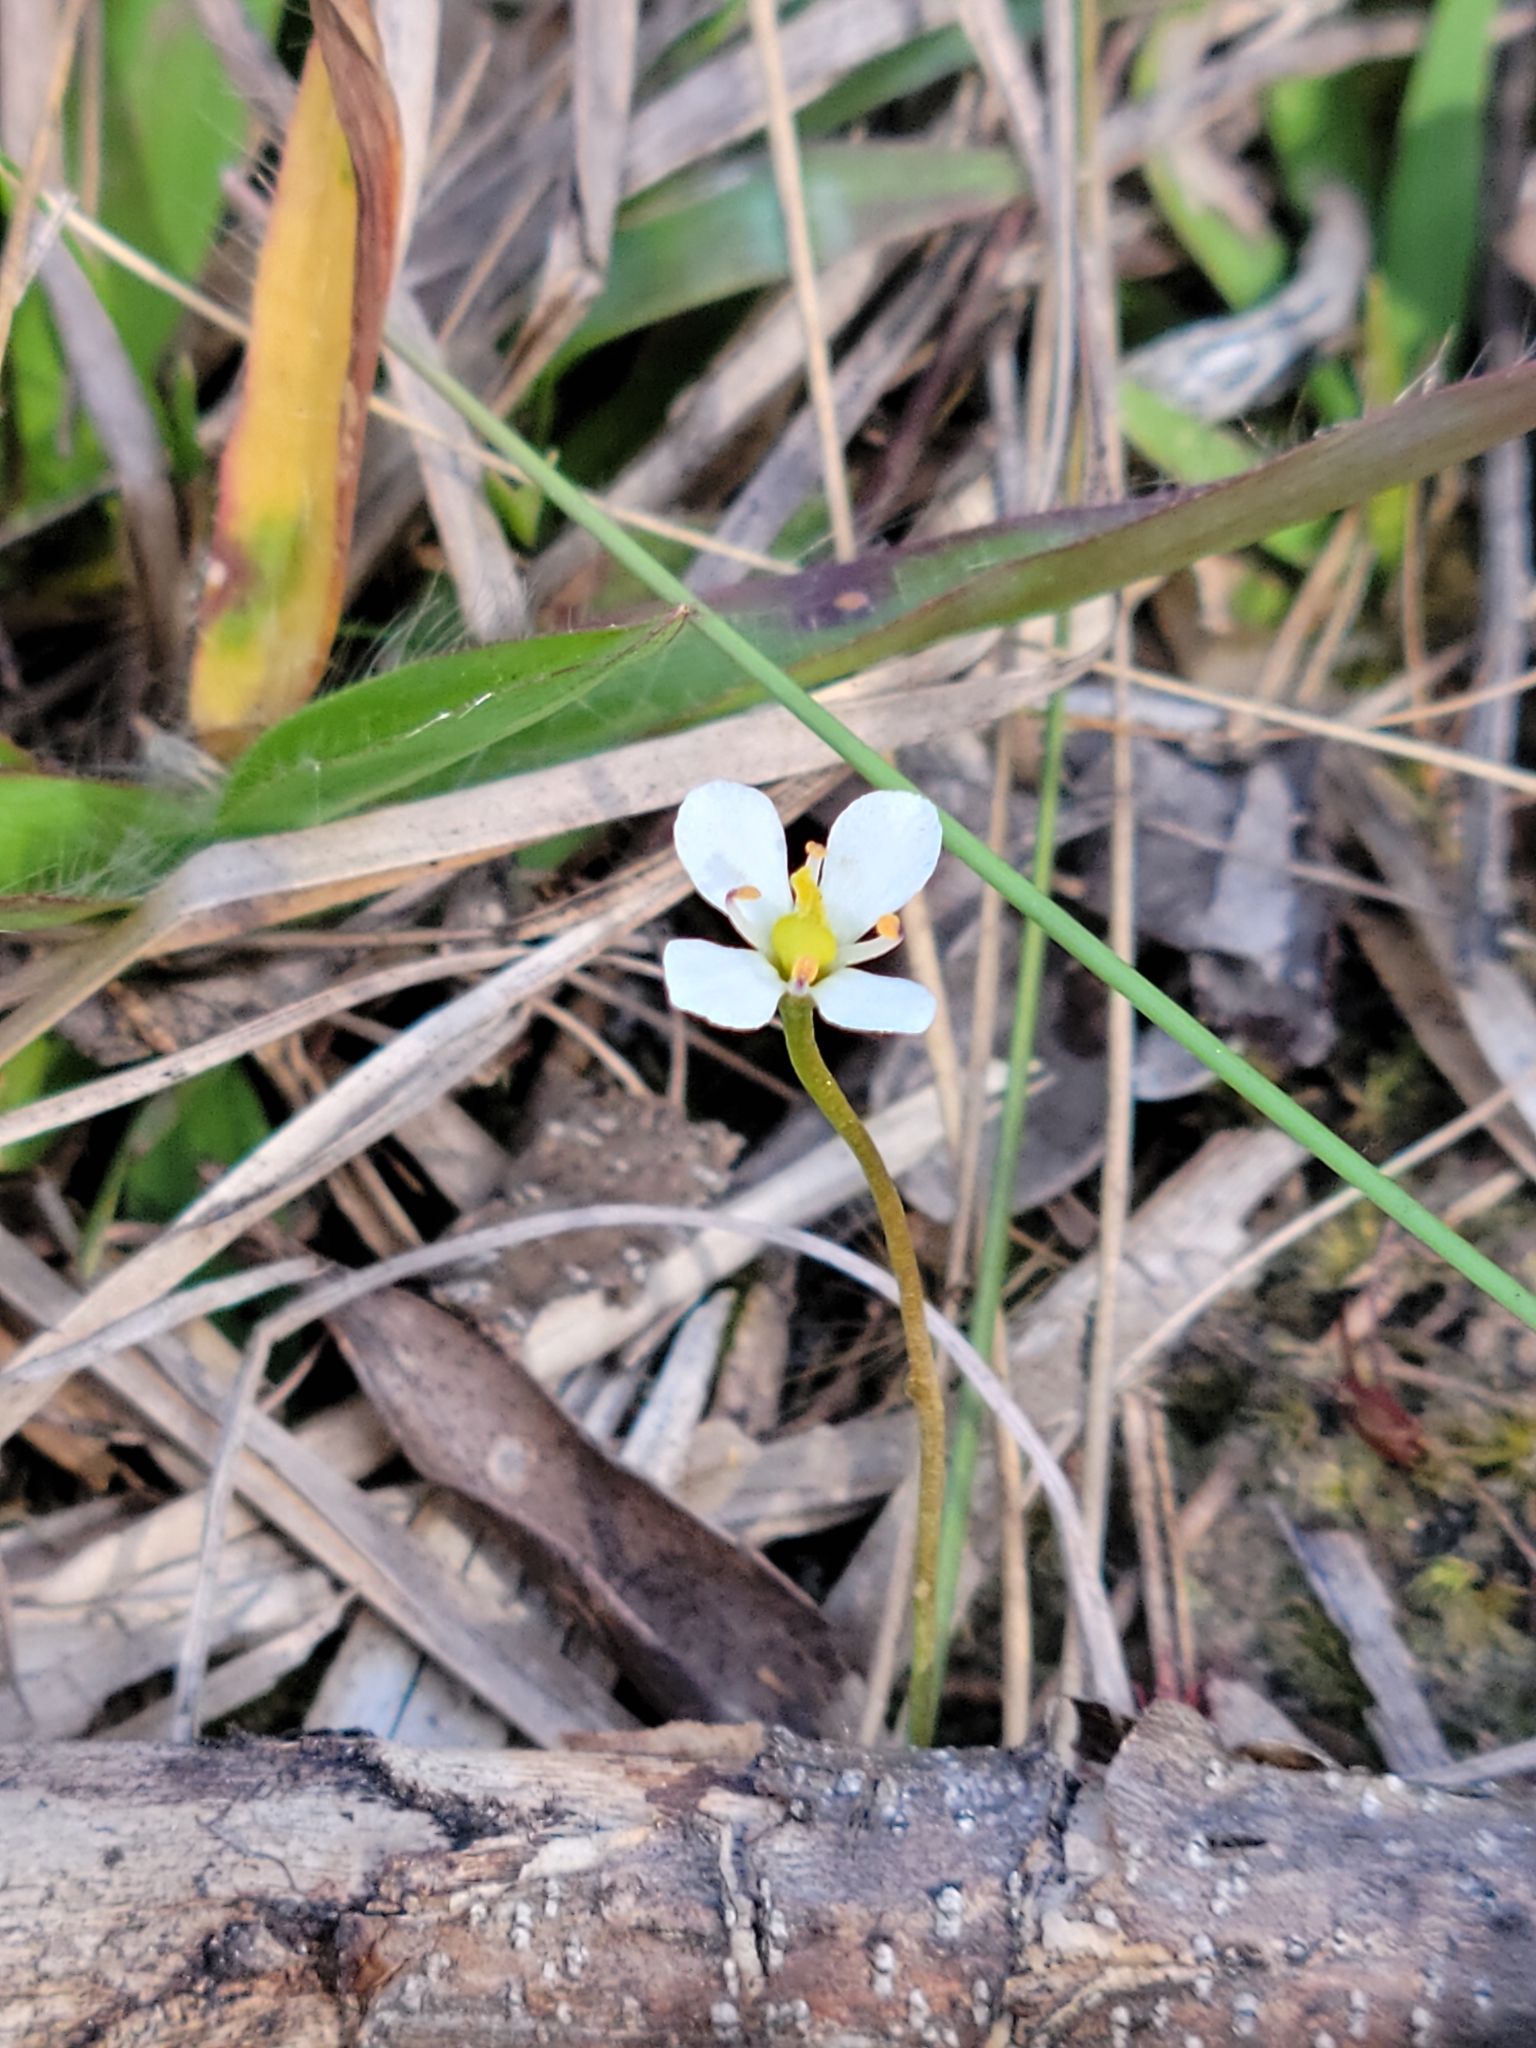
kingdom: Plantae
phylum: Tracheophyta
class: Magnoliopsida
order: Gentianales
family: Gentianaceae
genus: Bartonia
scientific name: Bartonia verna
